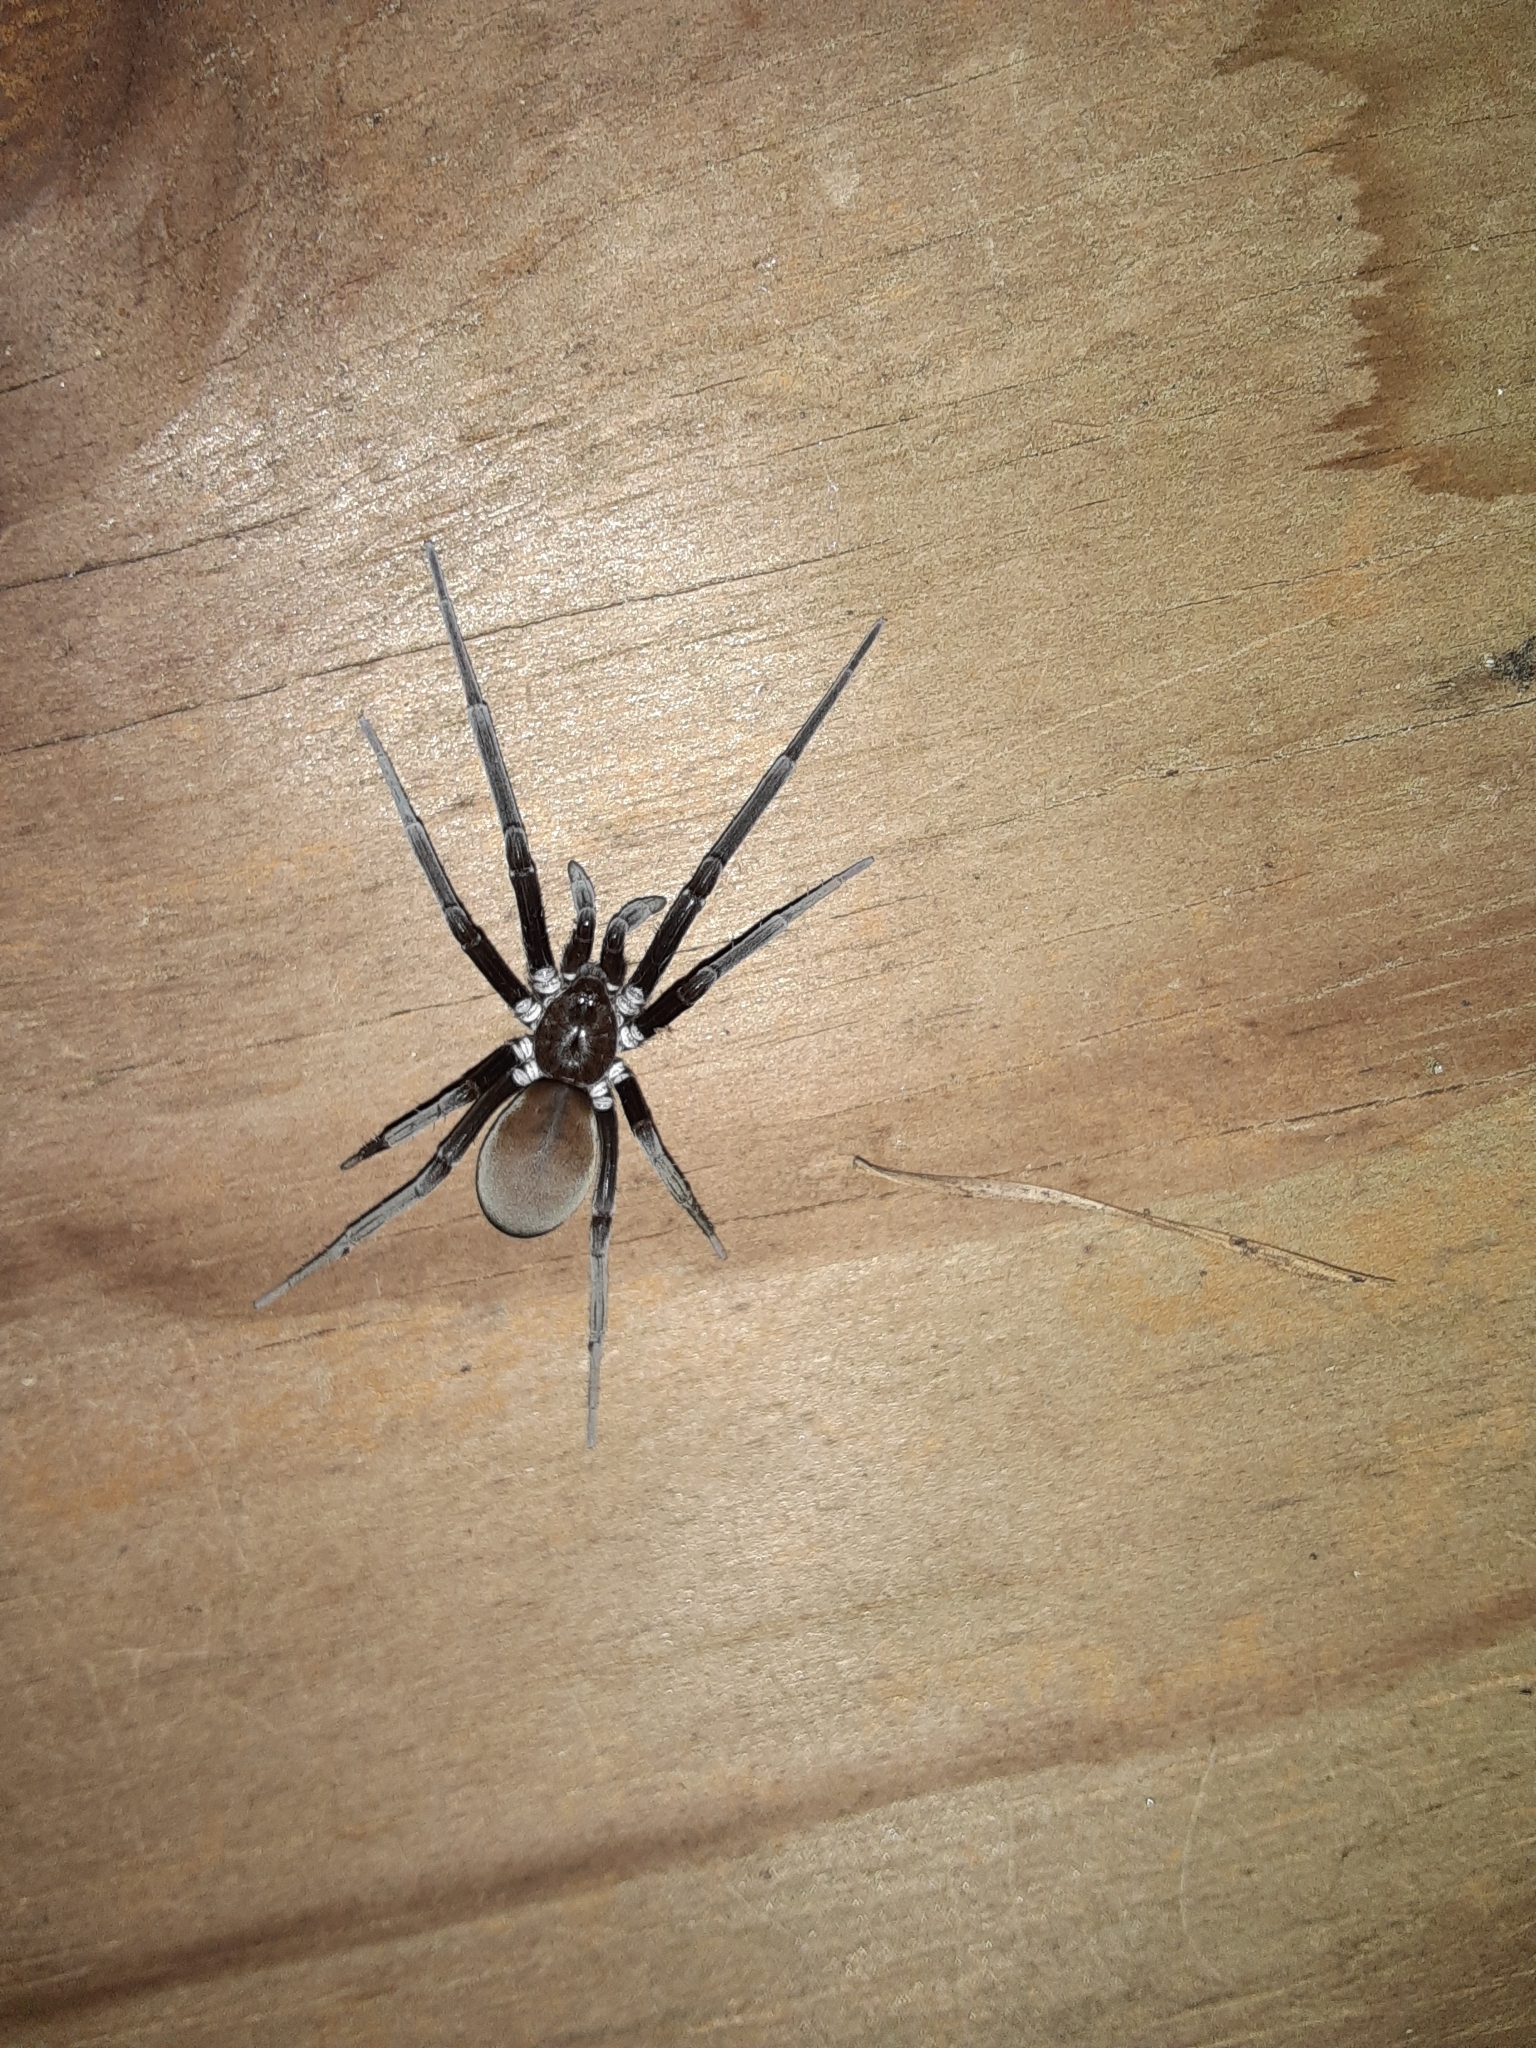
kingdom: Animalia
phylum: Arthropoda
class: Arachnida
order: Araneae
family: Filistatidae
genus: Kukulcania
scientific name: Kukulcania hibernalis
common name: Crevice weaver
